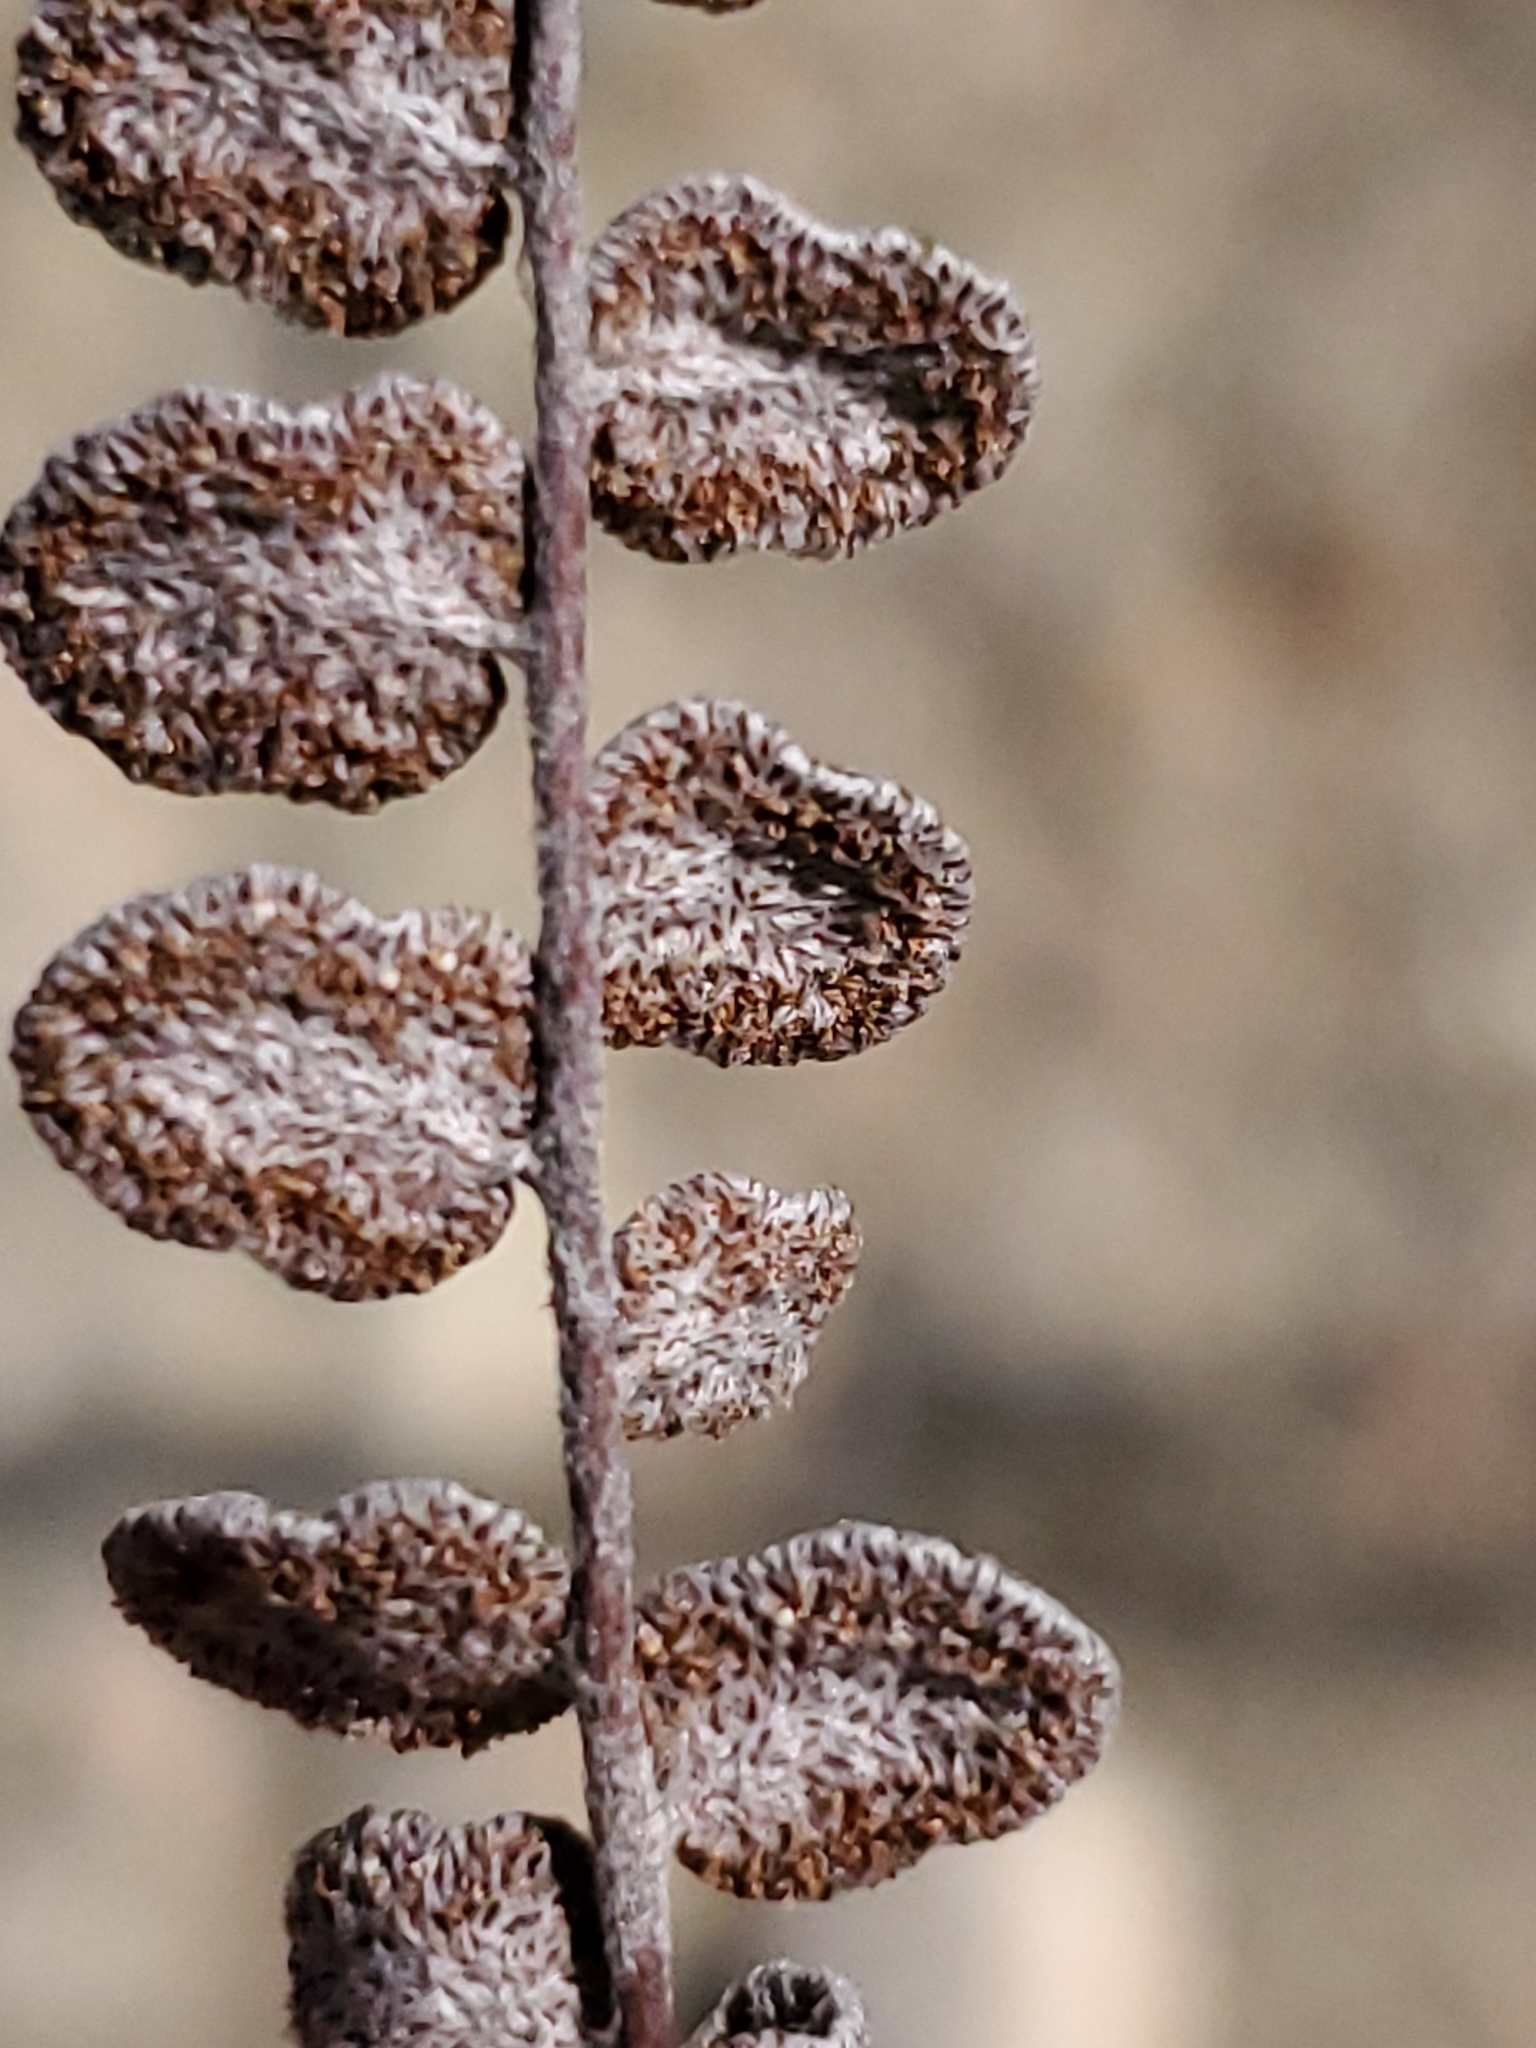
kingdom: Plantae
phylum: Tracheophyta
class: Polypodiopsida
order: Polypodiales
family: Pteridaceae
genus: Astrolepis
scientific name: Astrolepis cochisensis
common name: Scaly cloak fern
